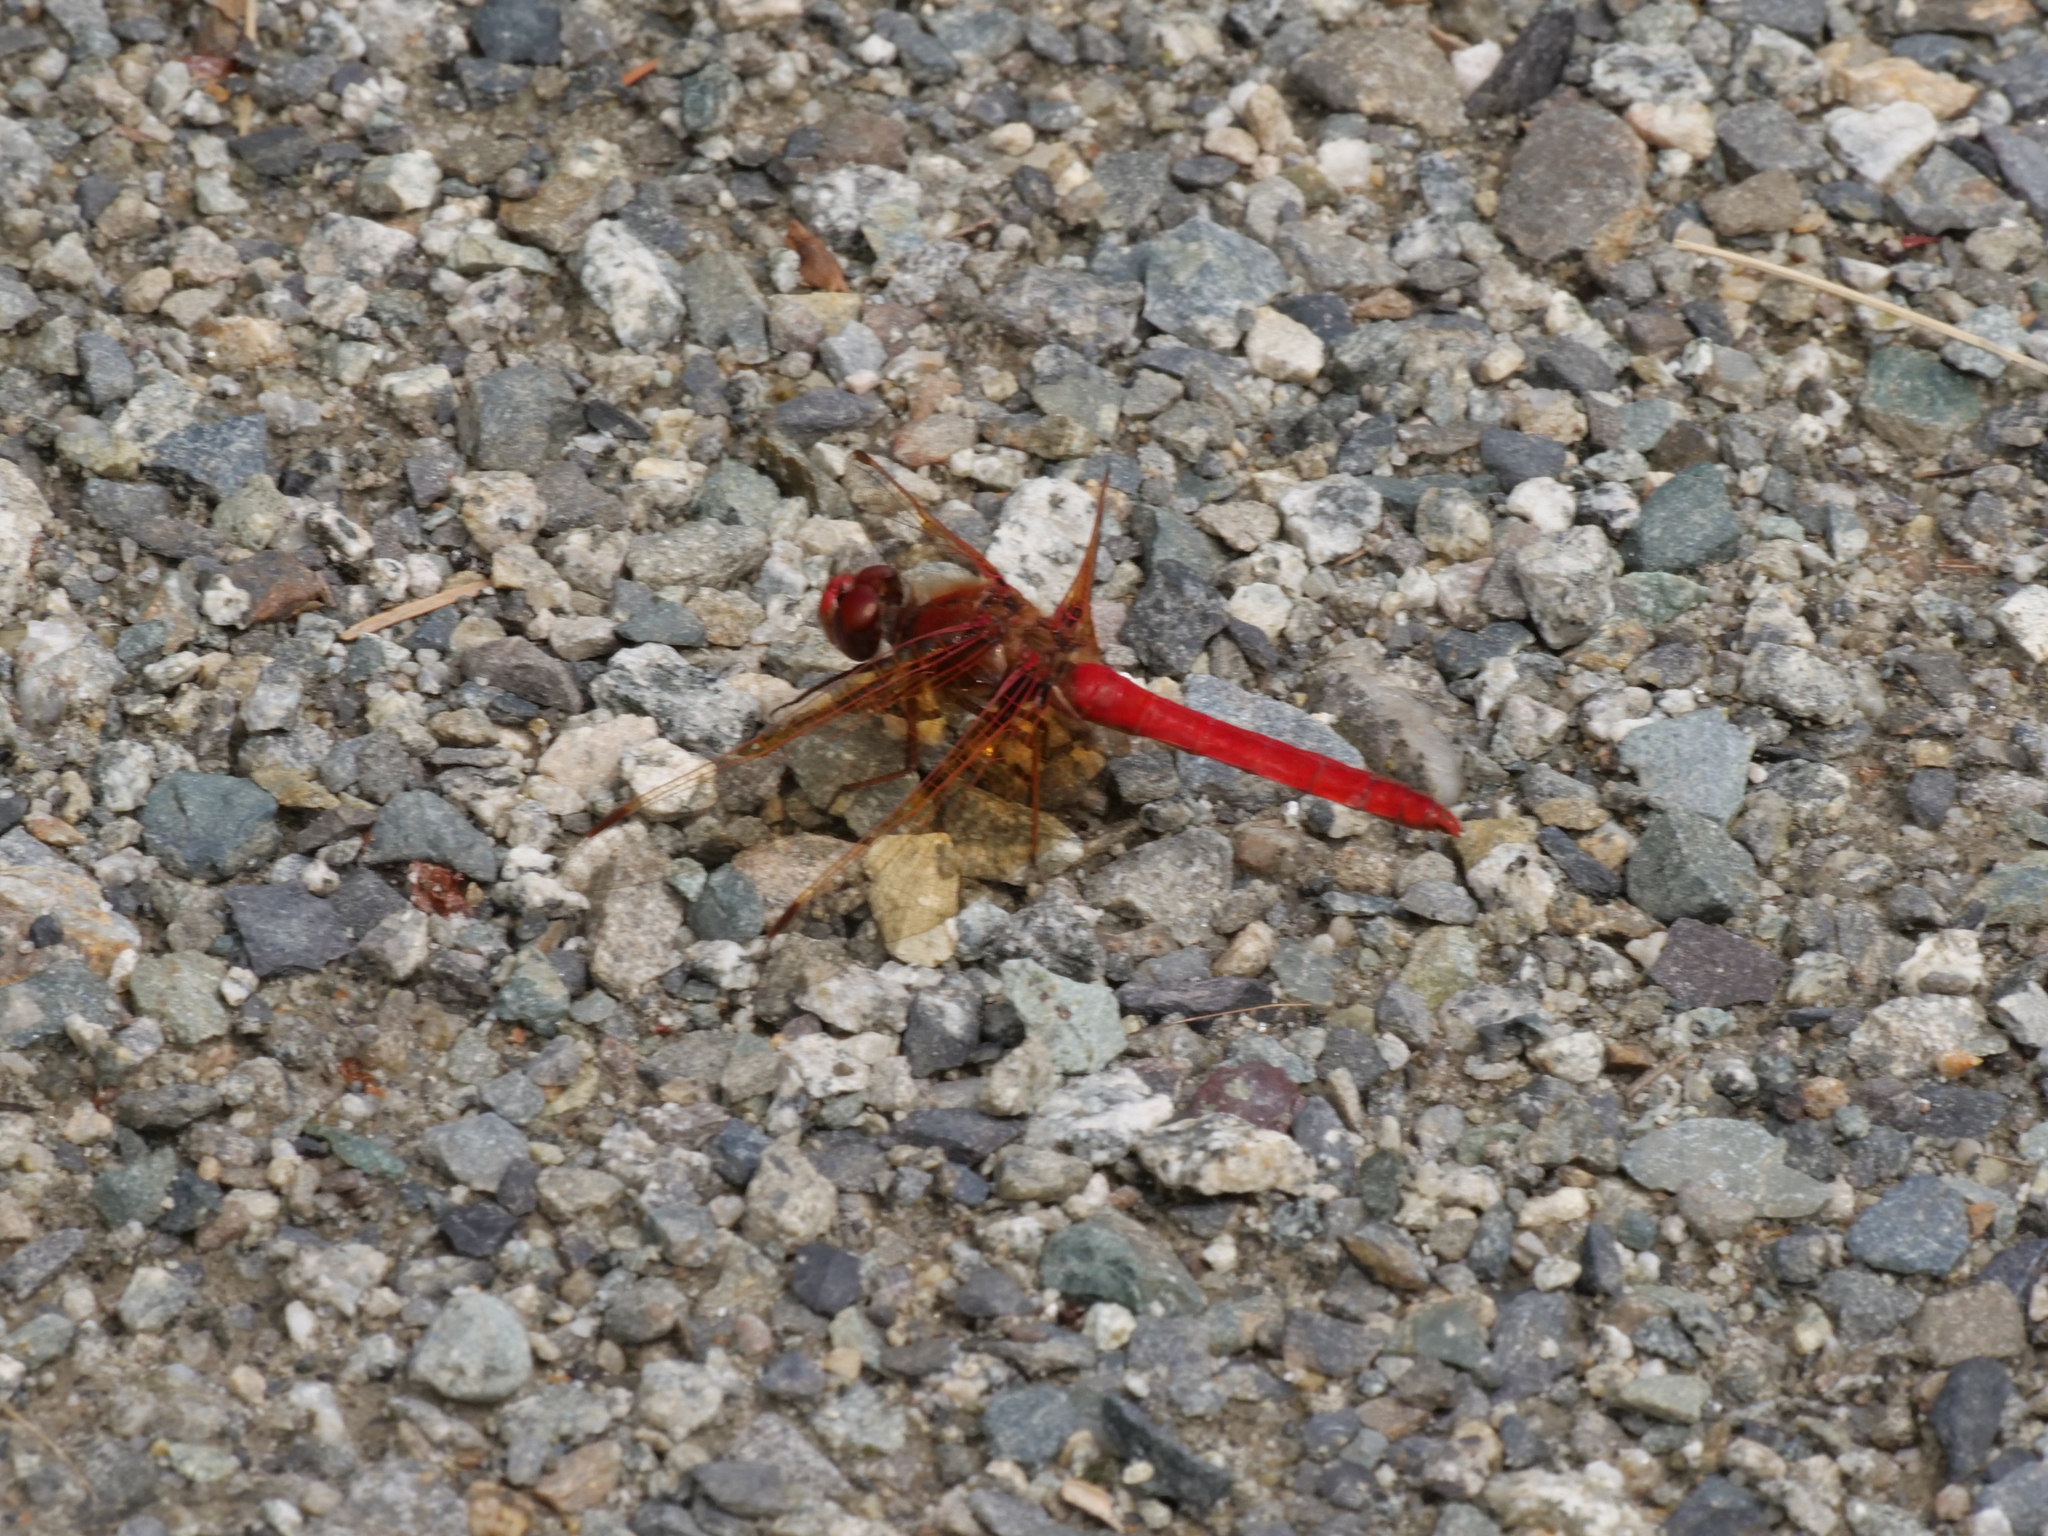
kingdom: Animalia
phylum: Arthropoda
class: Insecta
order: Odonata
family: Libellulidae
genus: Sympetrum
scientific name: Sympetrum illotum
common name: Cardinal meadowhawk
